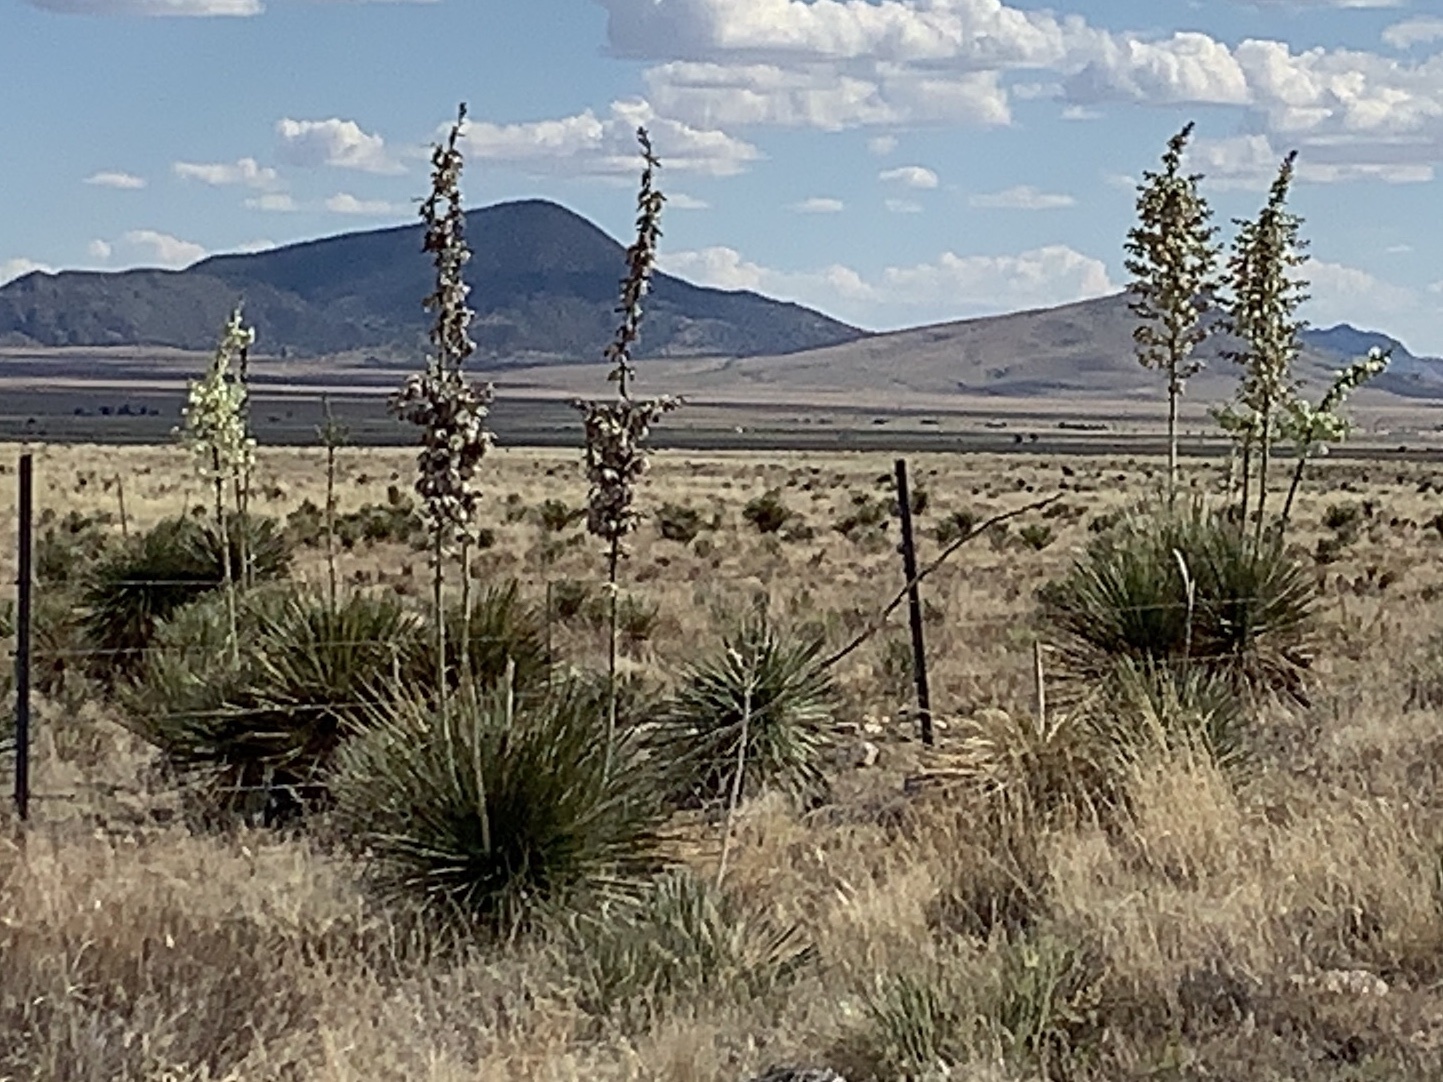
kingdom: Plantae
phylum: Tracheophyta
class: Liliopsida
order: Asparagales
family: Asparagaceae
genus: Yucca
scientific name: Yucca elata
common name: Palmella
